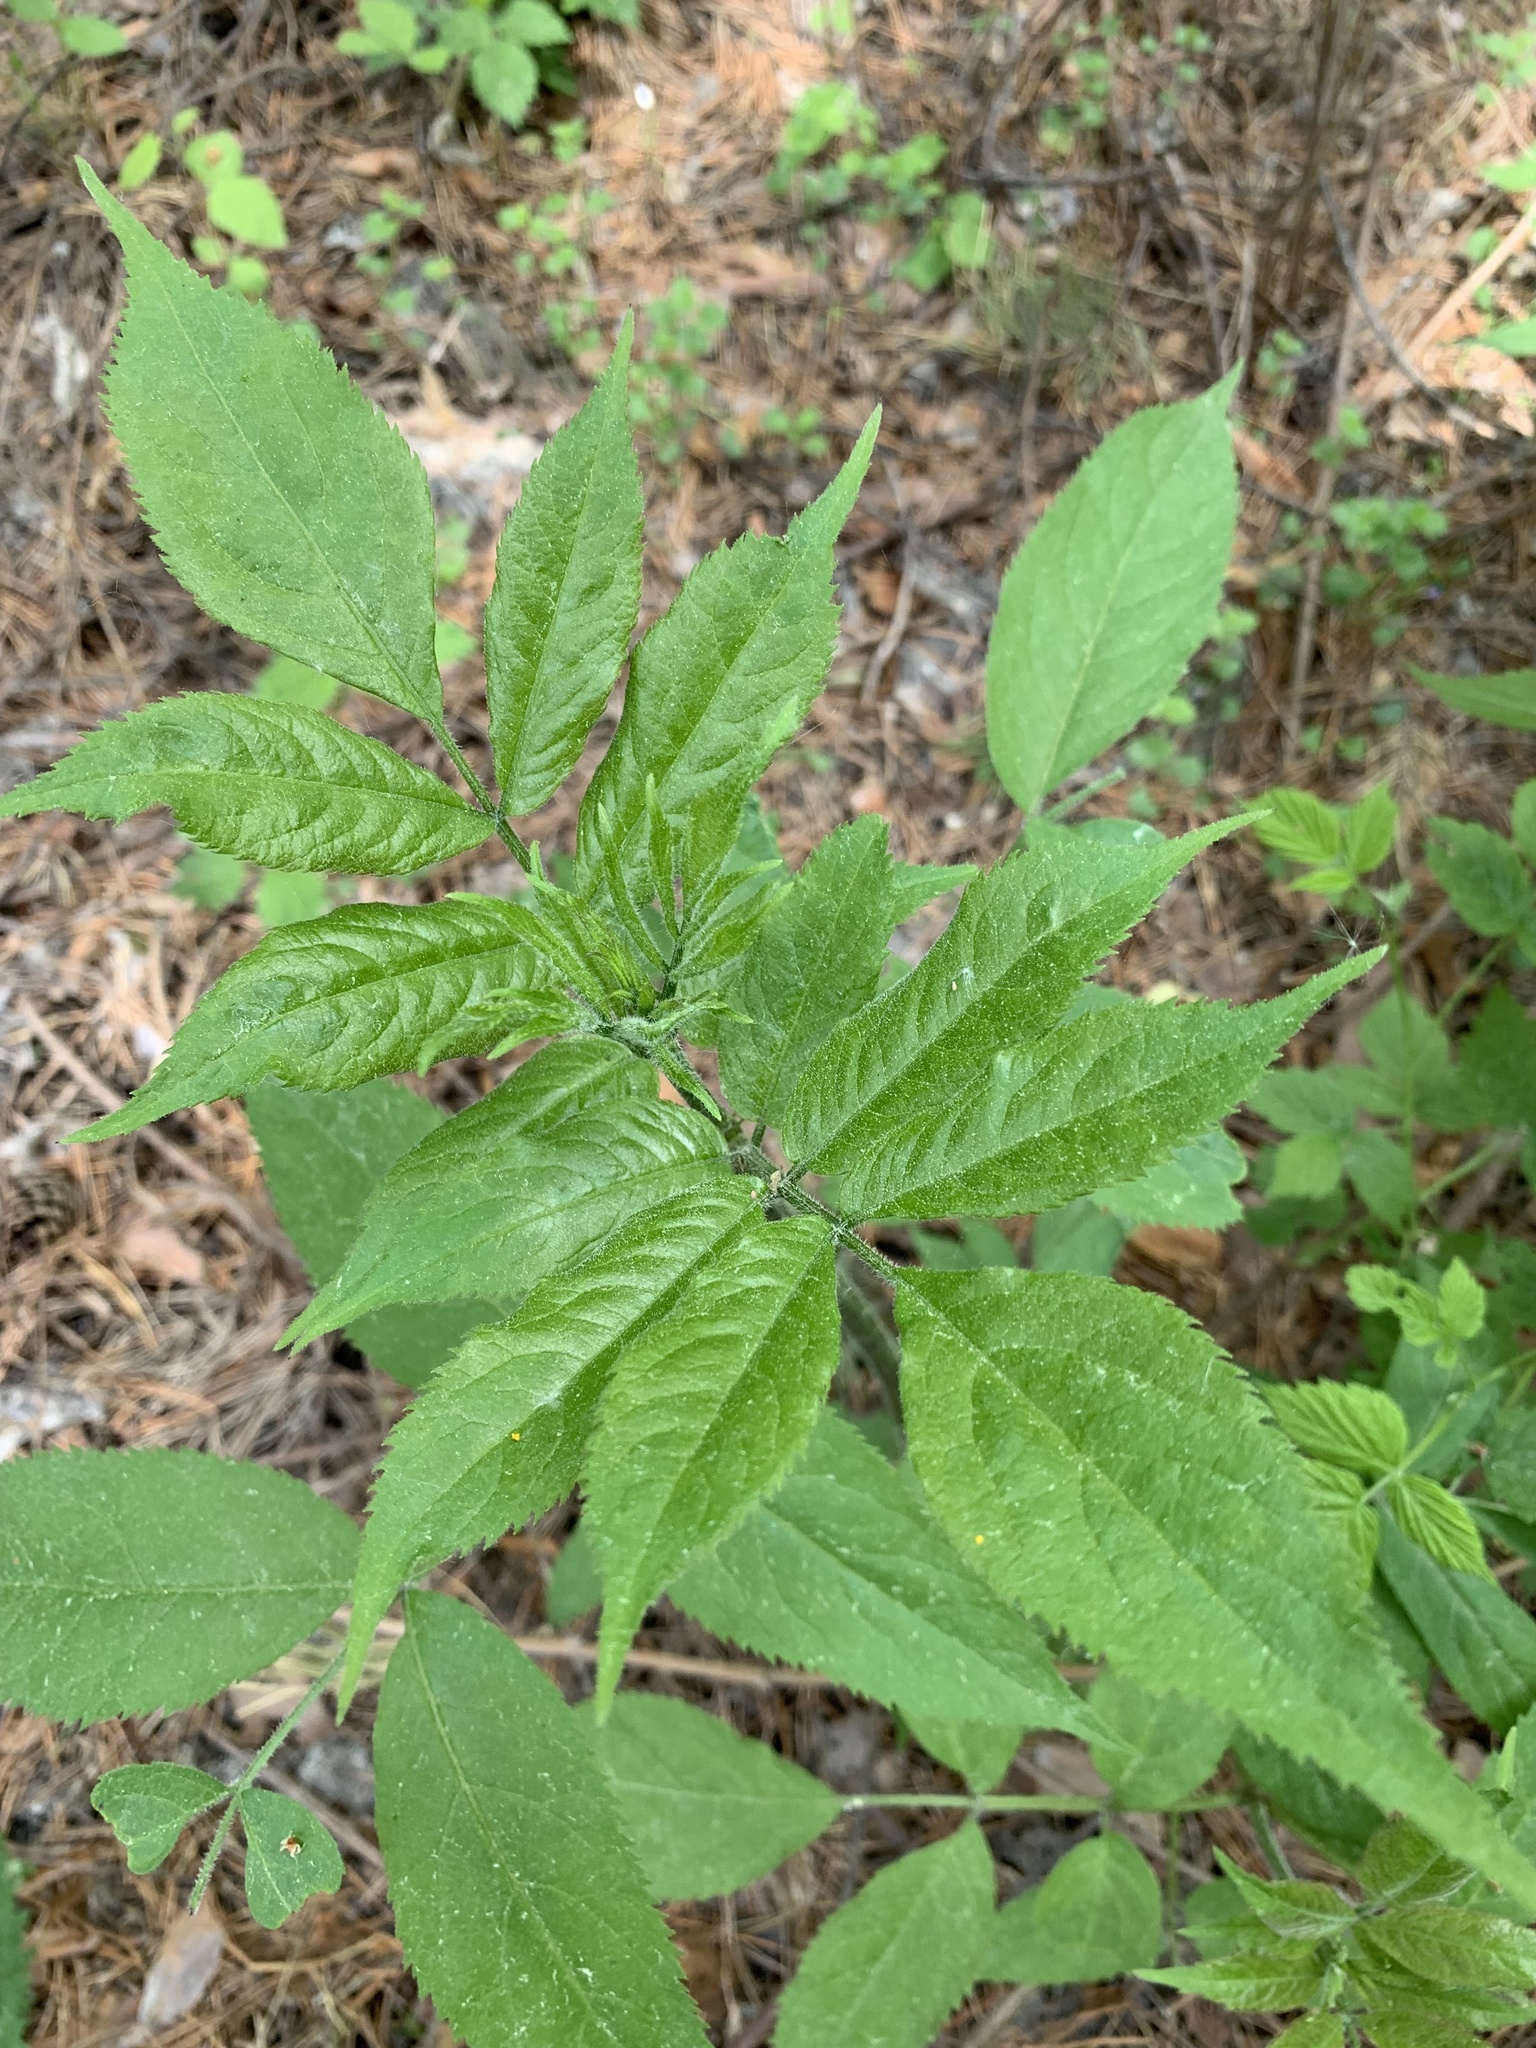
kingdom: Plantae
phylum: Tracheophyta
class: Magnoliopsida
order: Dipsacales
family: Viburnaceae
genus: Sambucus
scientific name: Sambucus sibirica
